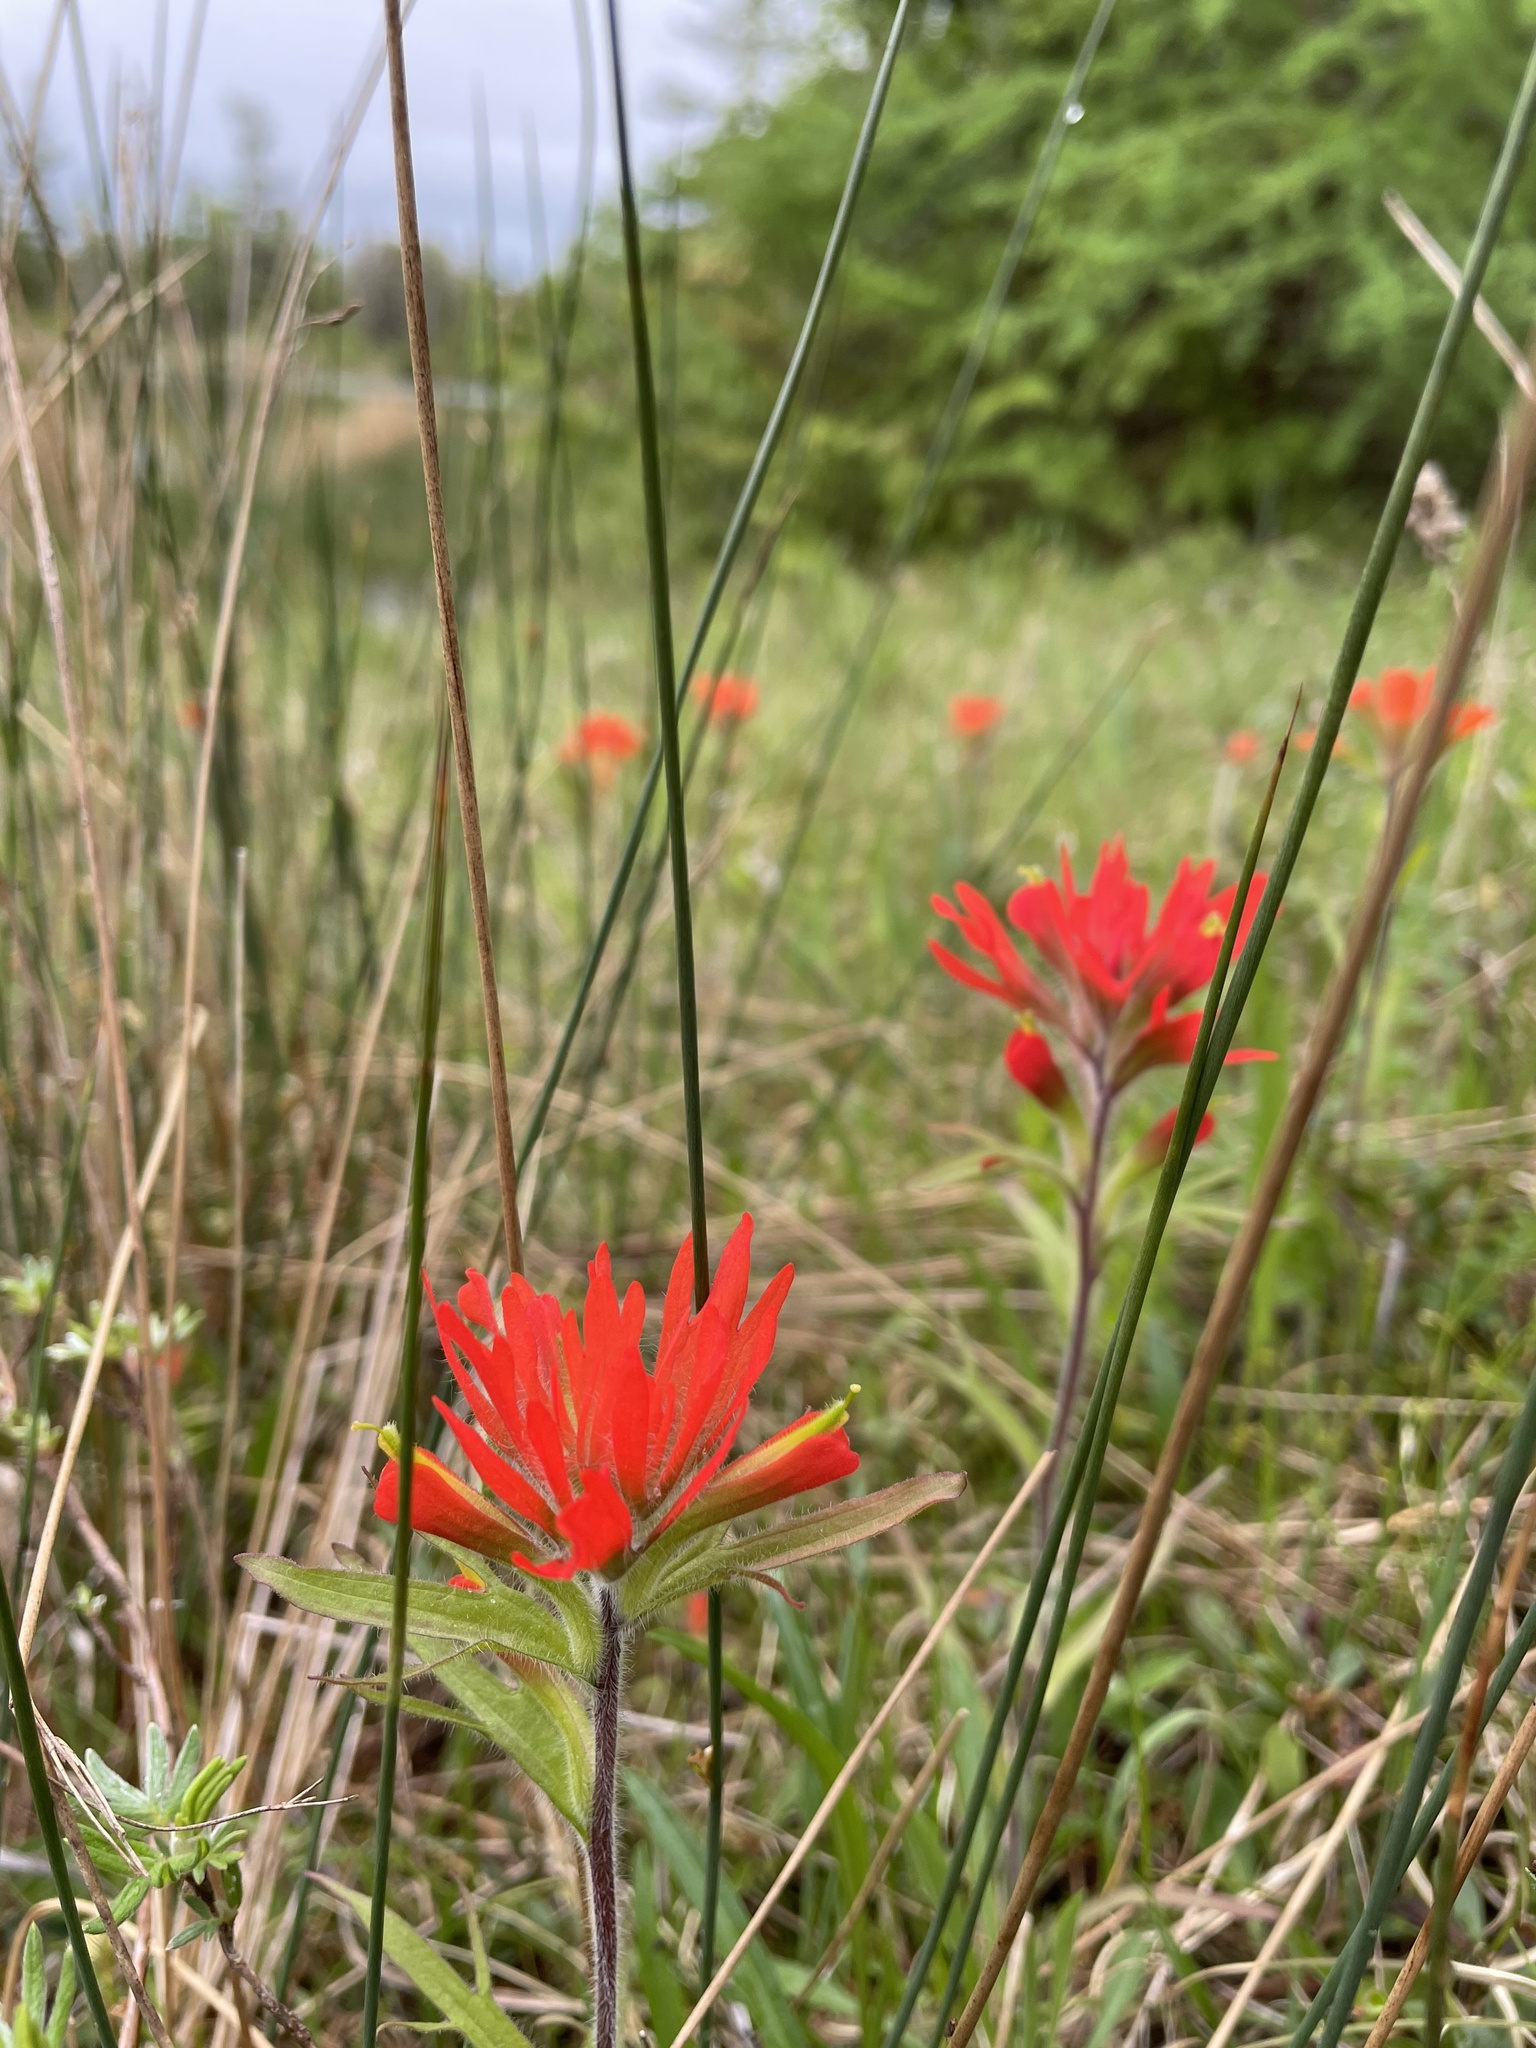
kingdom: Plantae
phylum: Tracheophyta
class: Magnoliopsida
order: Lamiales
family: Orobanchaceae
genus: Castilleja
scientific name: Castilleja coccinea
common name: Scarlet paintbrush
